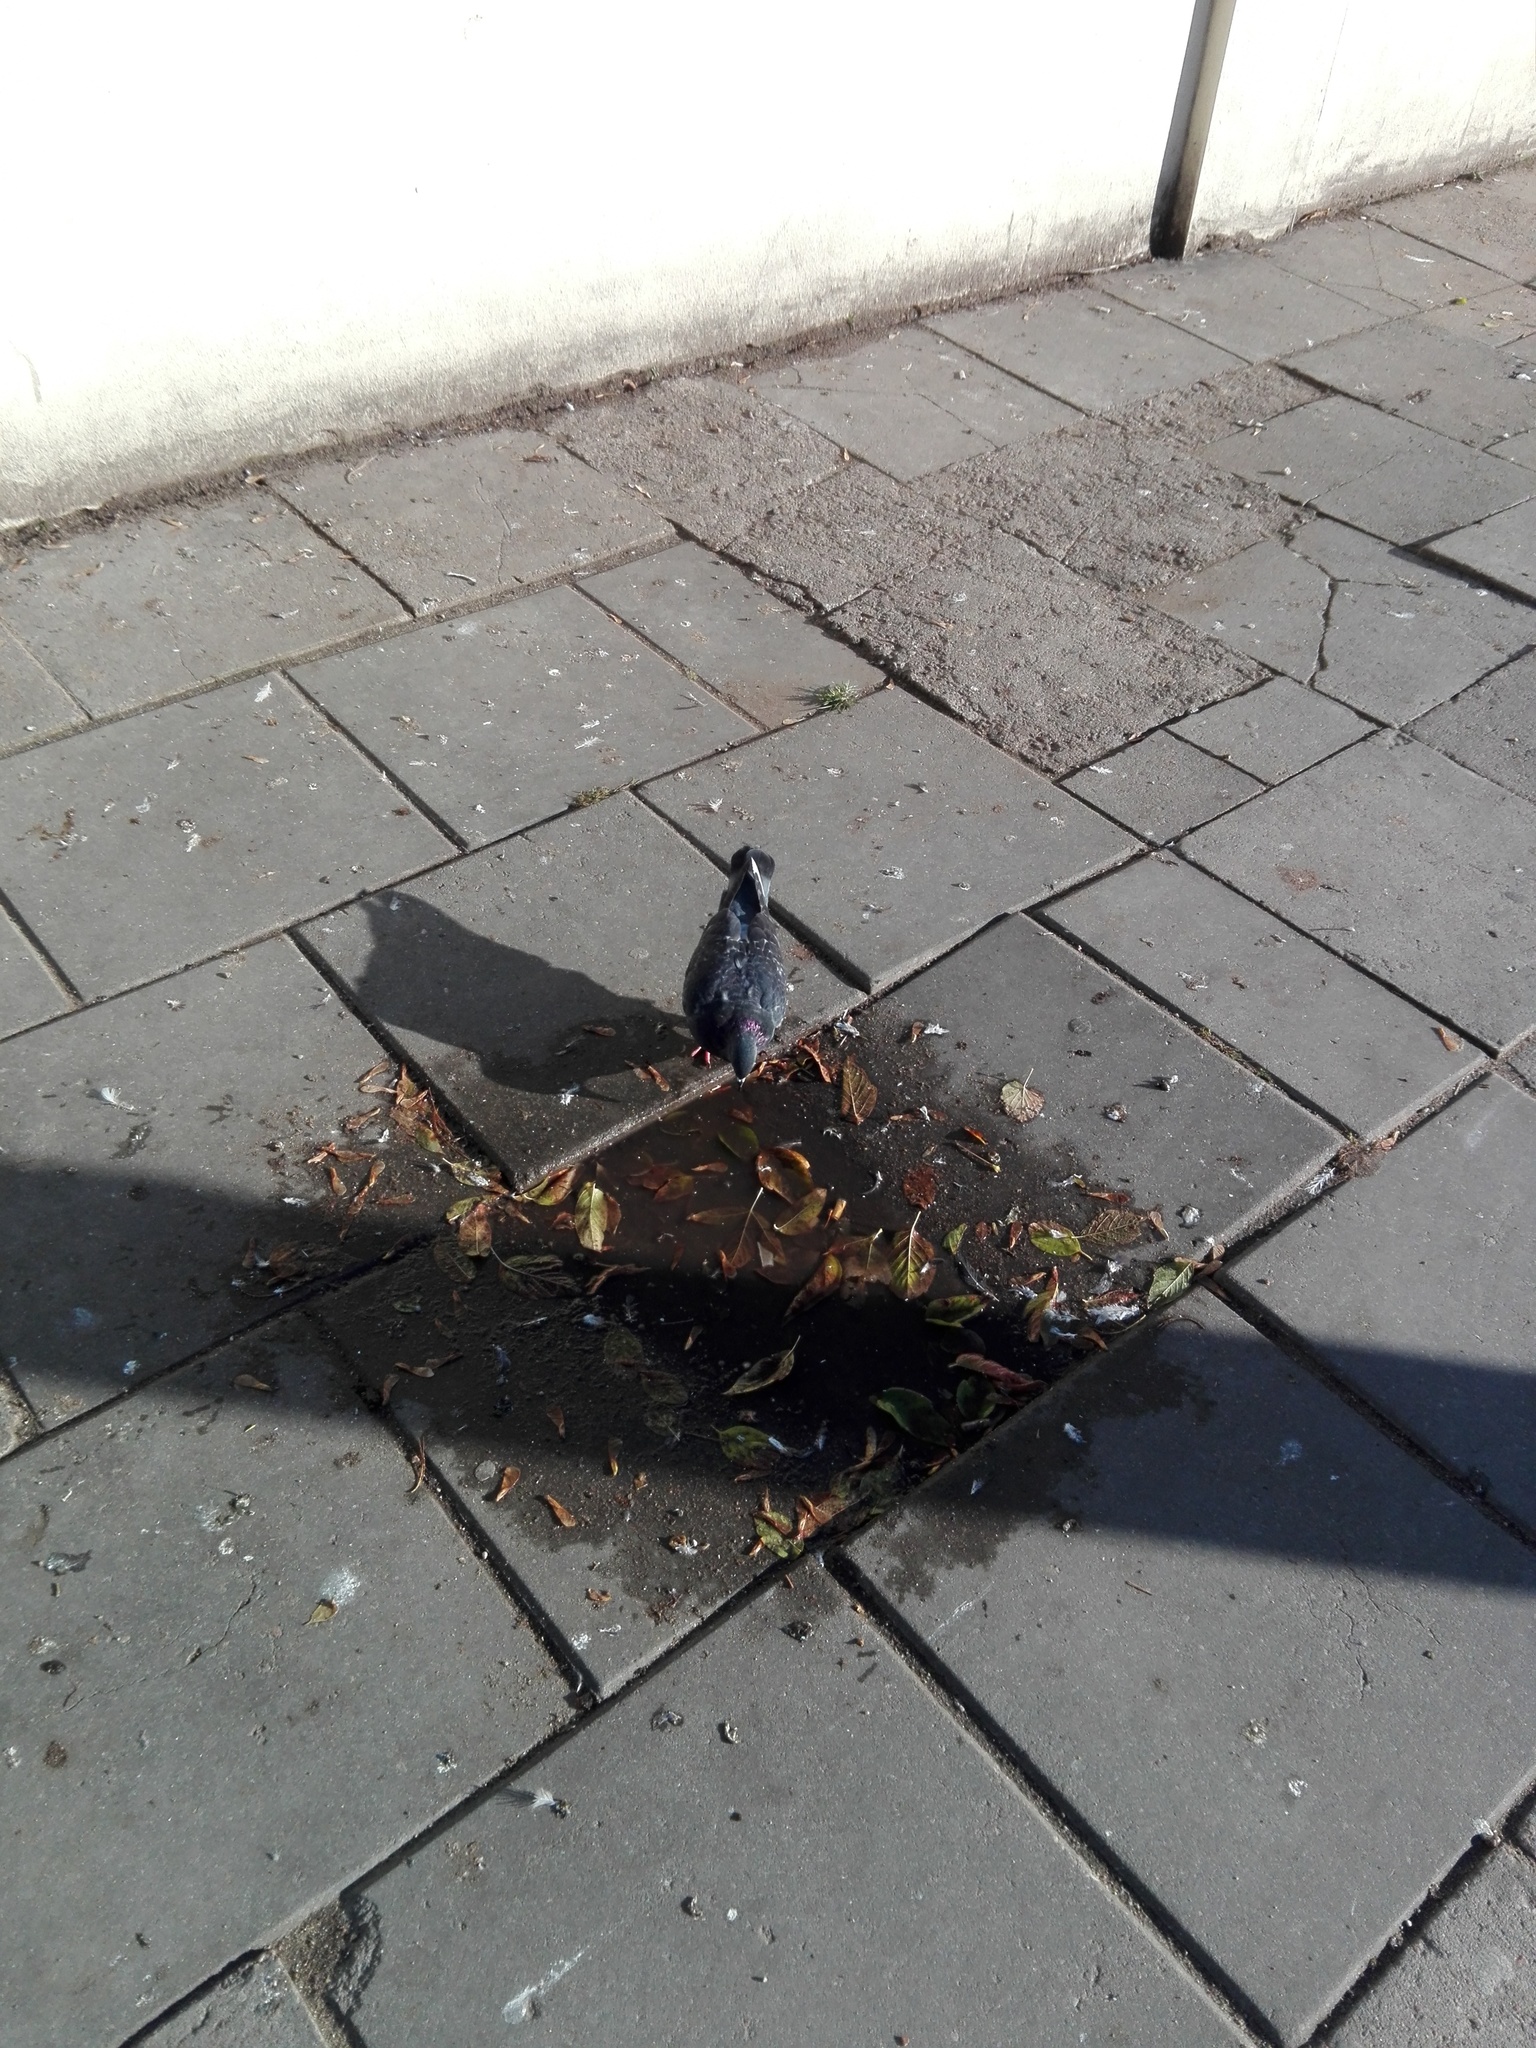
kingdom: Animalia
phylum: Chordata
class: Aves
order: Columbiformes
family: Columbidae
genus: Columba
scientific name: Columba livia
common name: Rock pigeon
